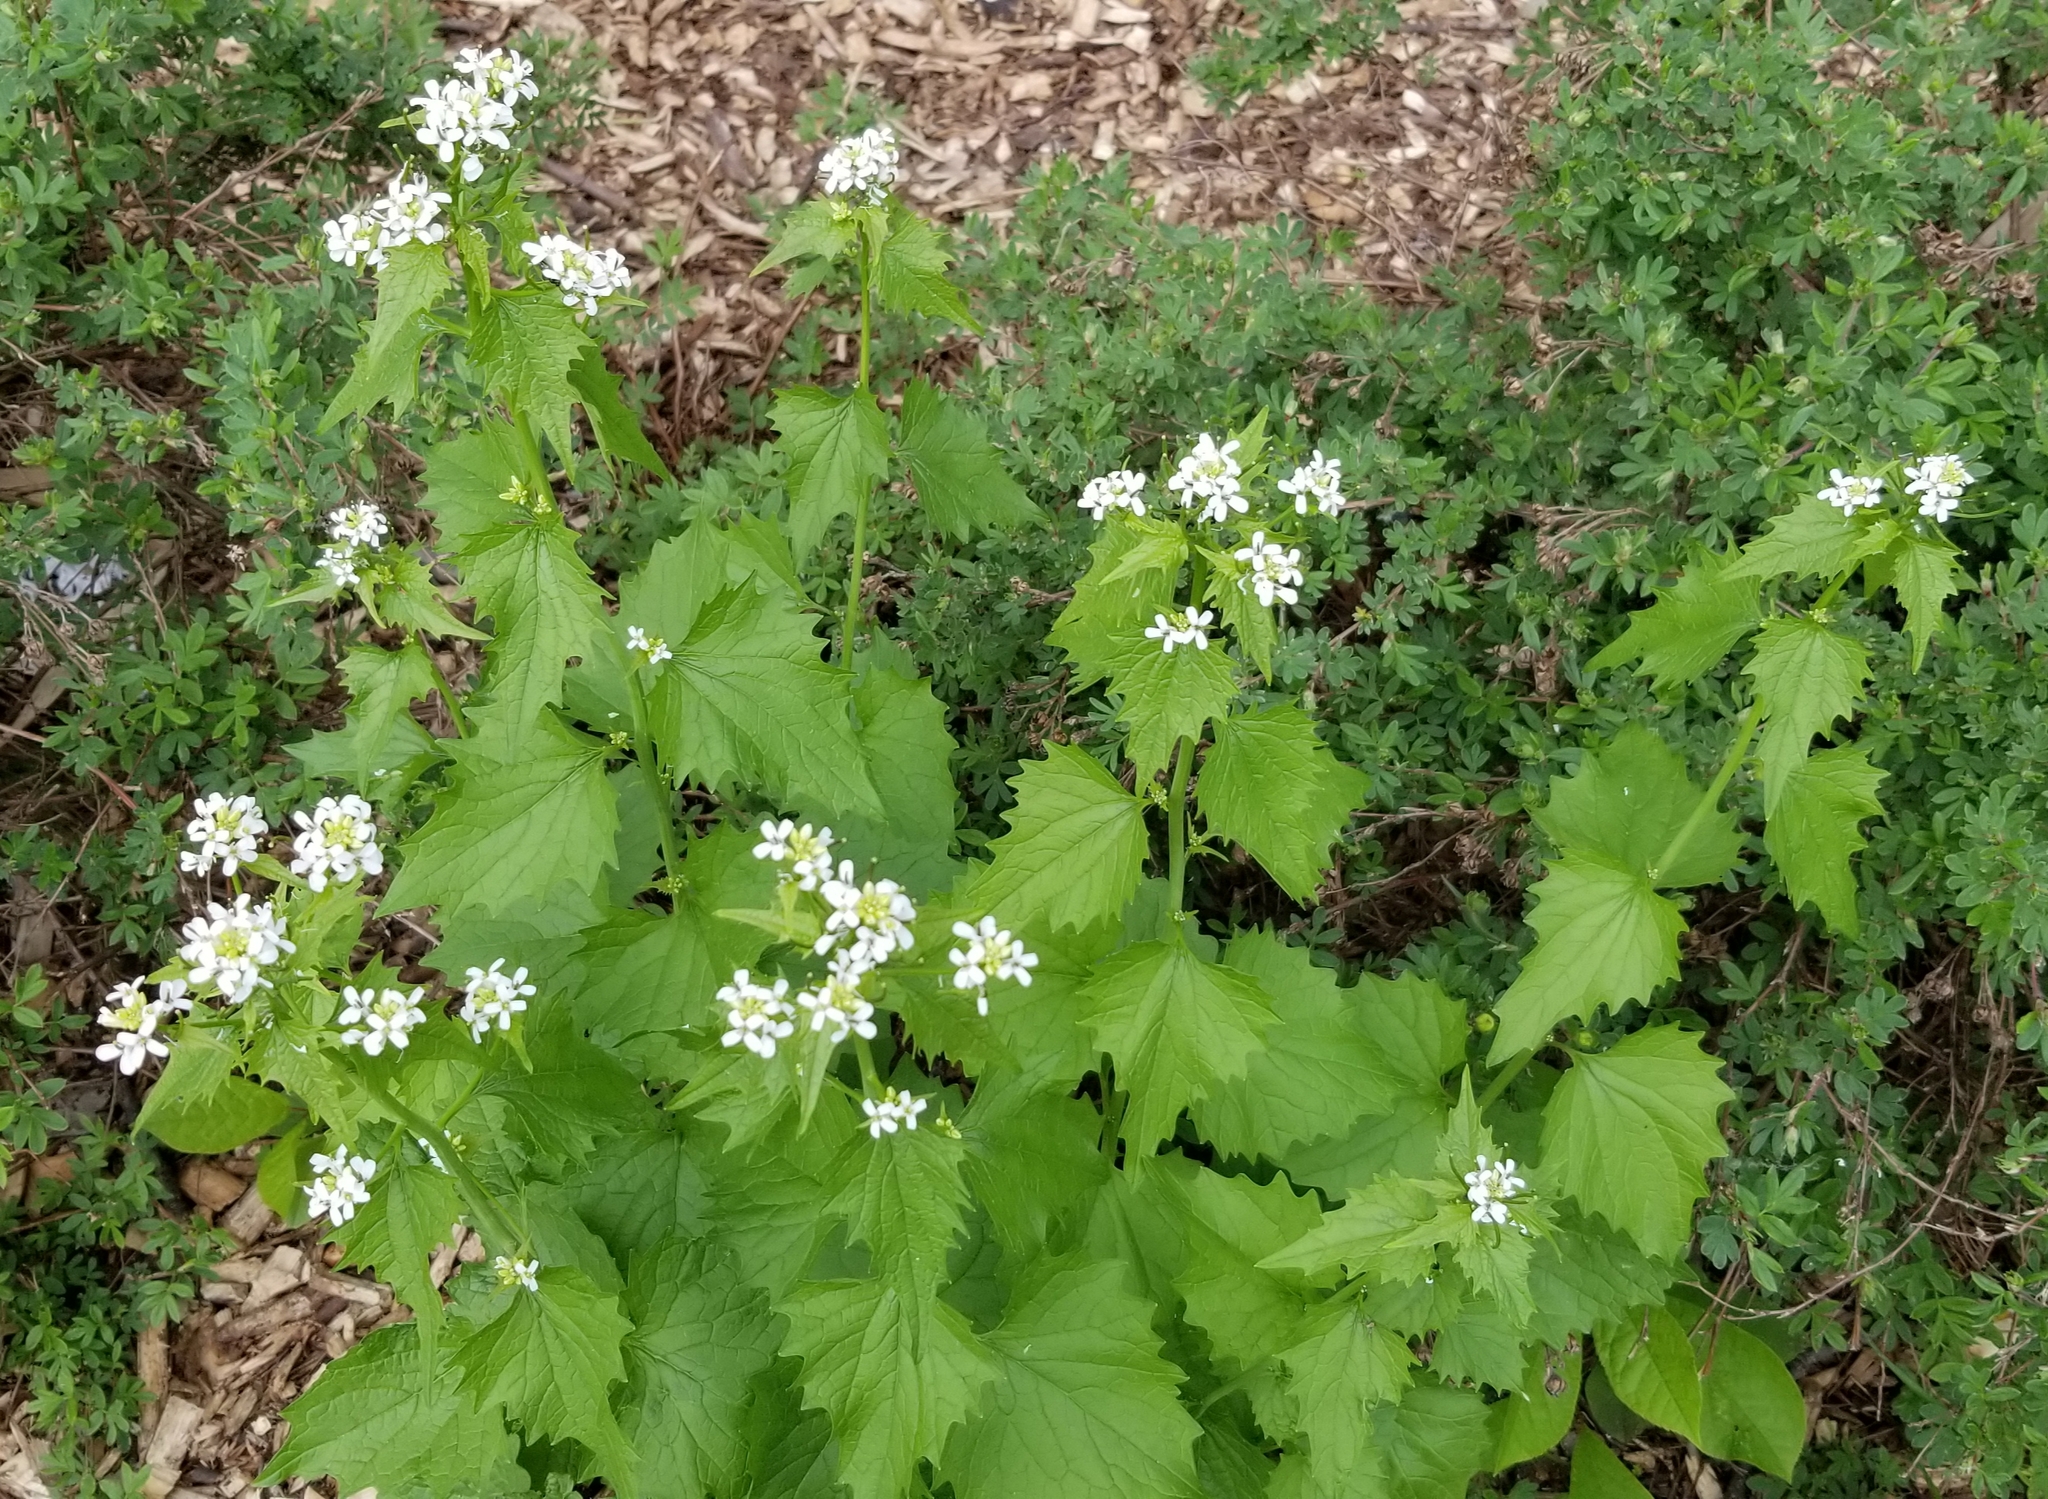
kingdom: Plantae
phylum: Tracheophyta
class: Magnoliopsida
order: Brassicales
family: Brassicaceae
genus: Alliaria
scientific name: Alliaria petiolata
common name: Garlic mustard
